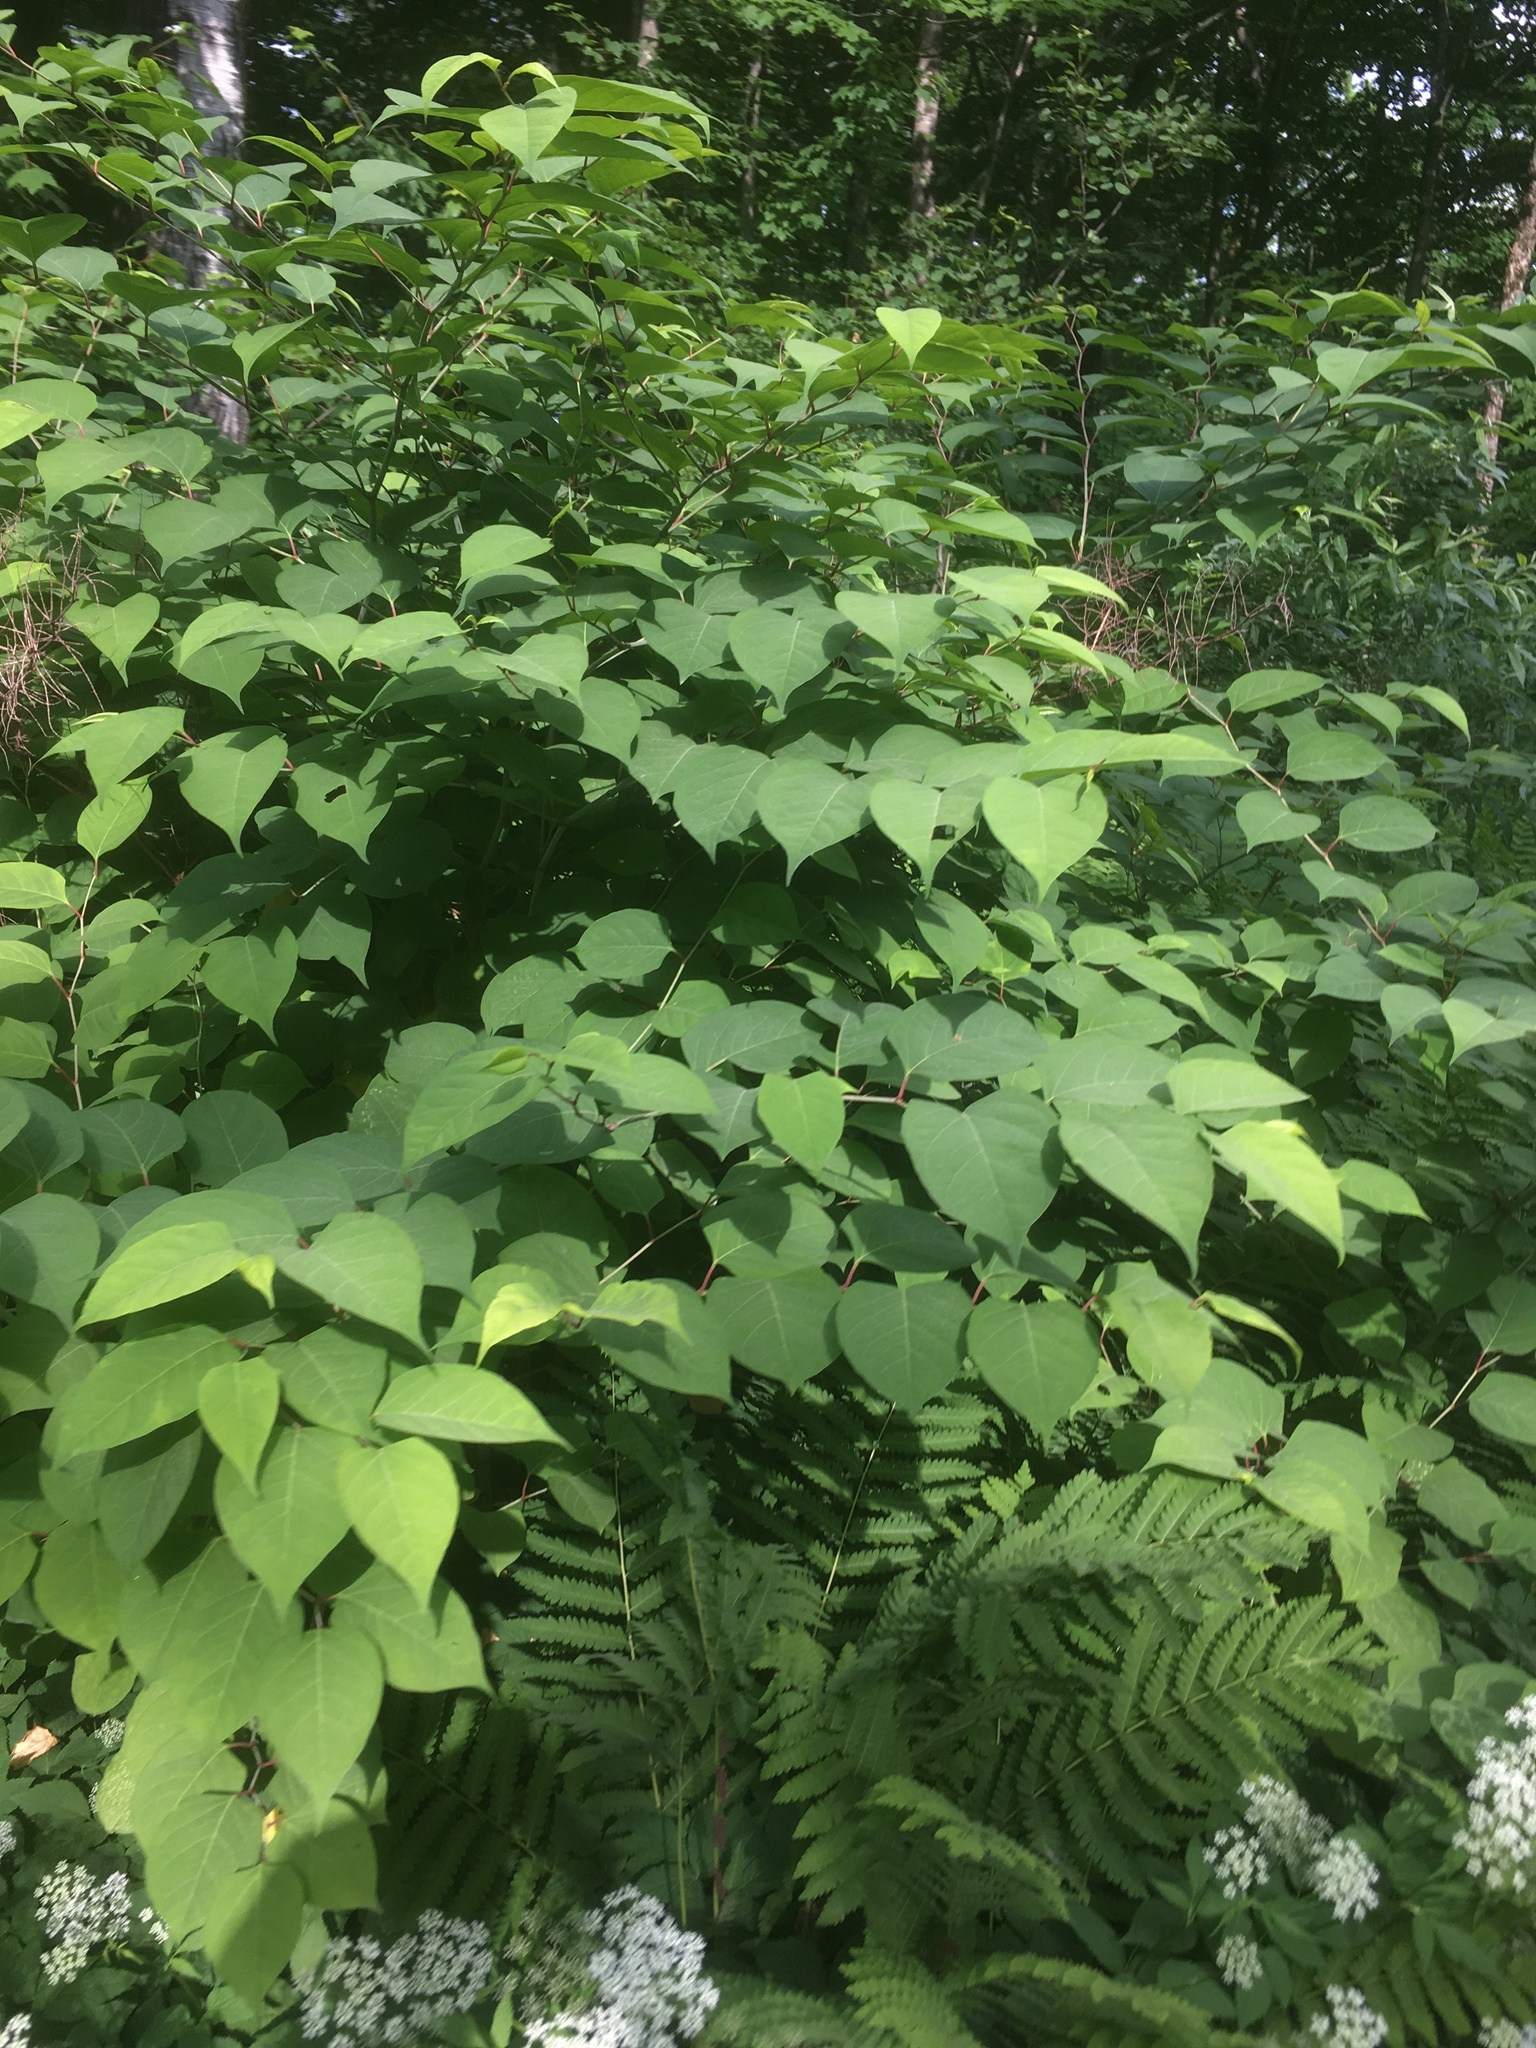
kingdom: Plantae
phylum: Tracheophyta
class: Magnoliopsida
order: Caryophyllales
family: Polygonaceae
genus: Reynoutria
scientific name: Reynoutria japonica
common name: Japanese knotweed
